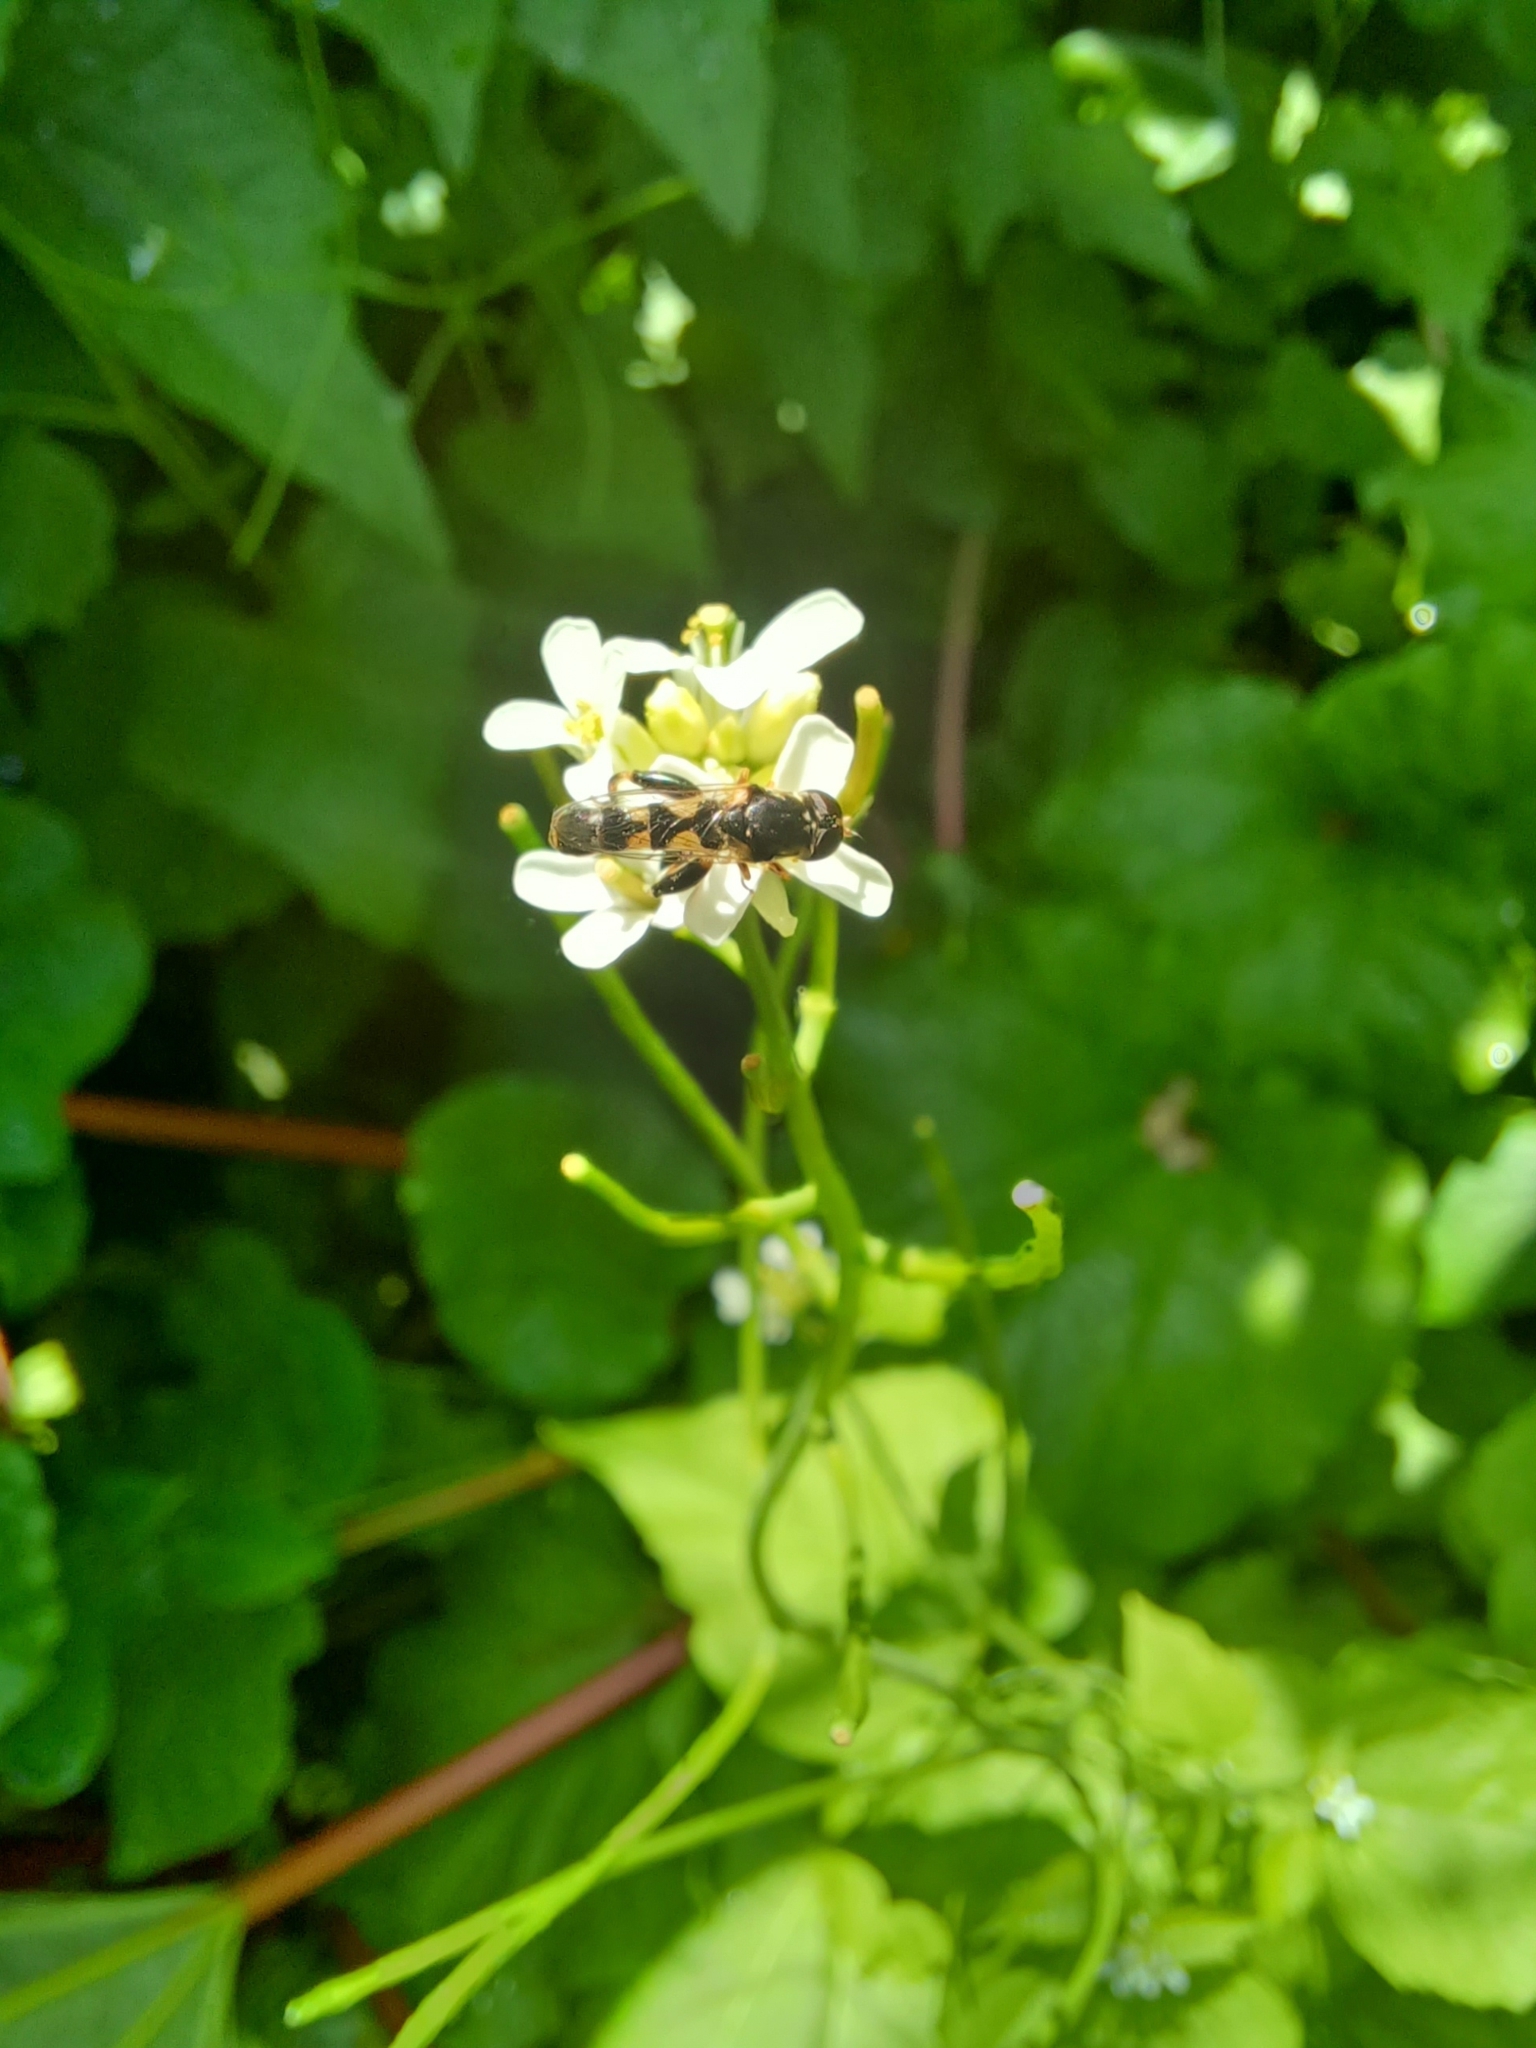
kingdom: Animalia
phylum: Arthropoda
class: Insecta
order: Diptera
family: Syrphidae
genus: Syritta
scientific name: Syritta pipiens
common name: Hover fly
